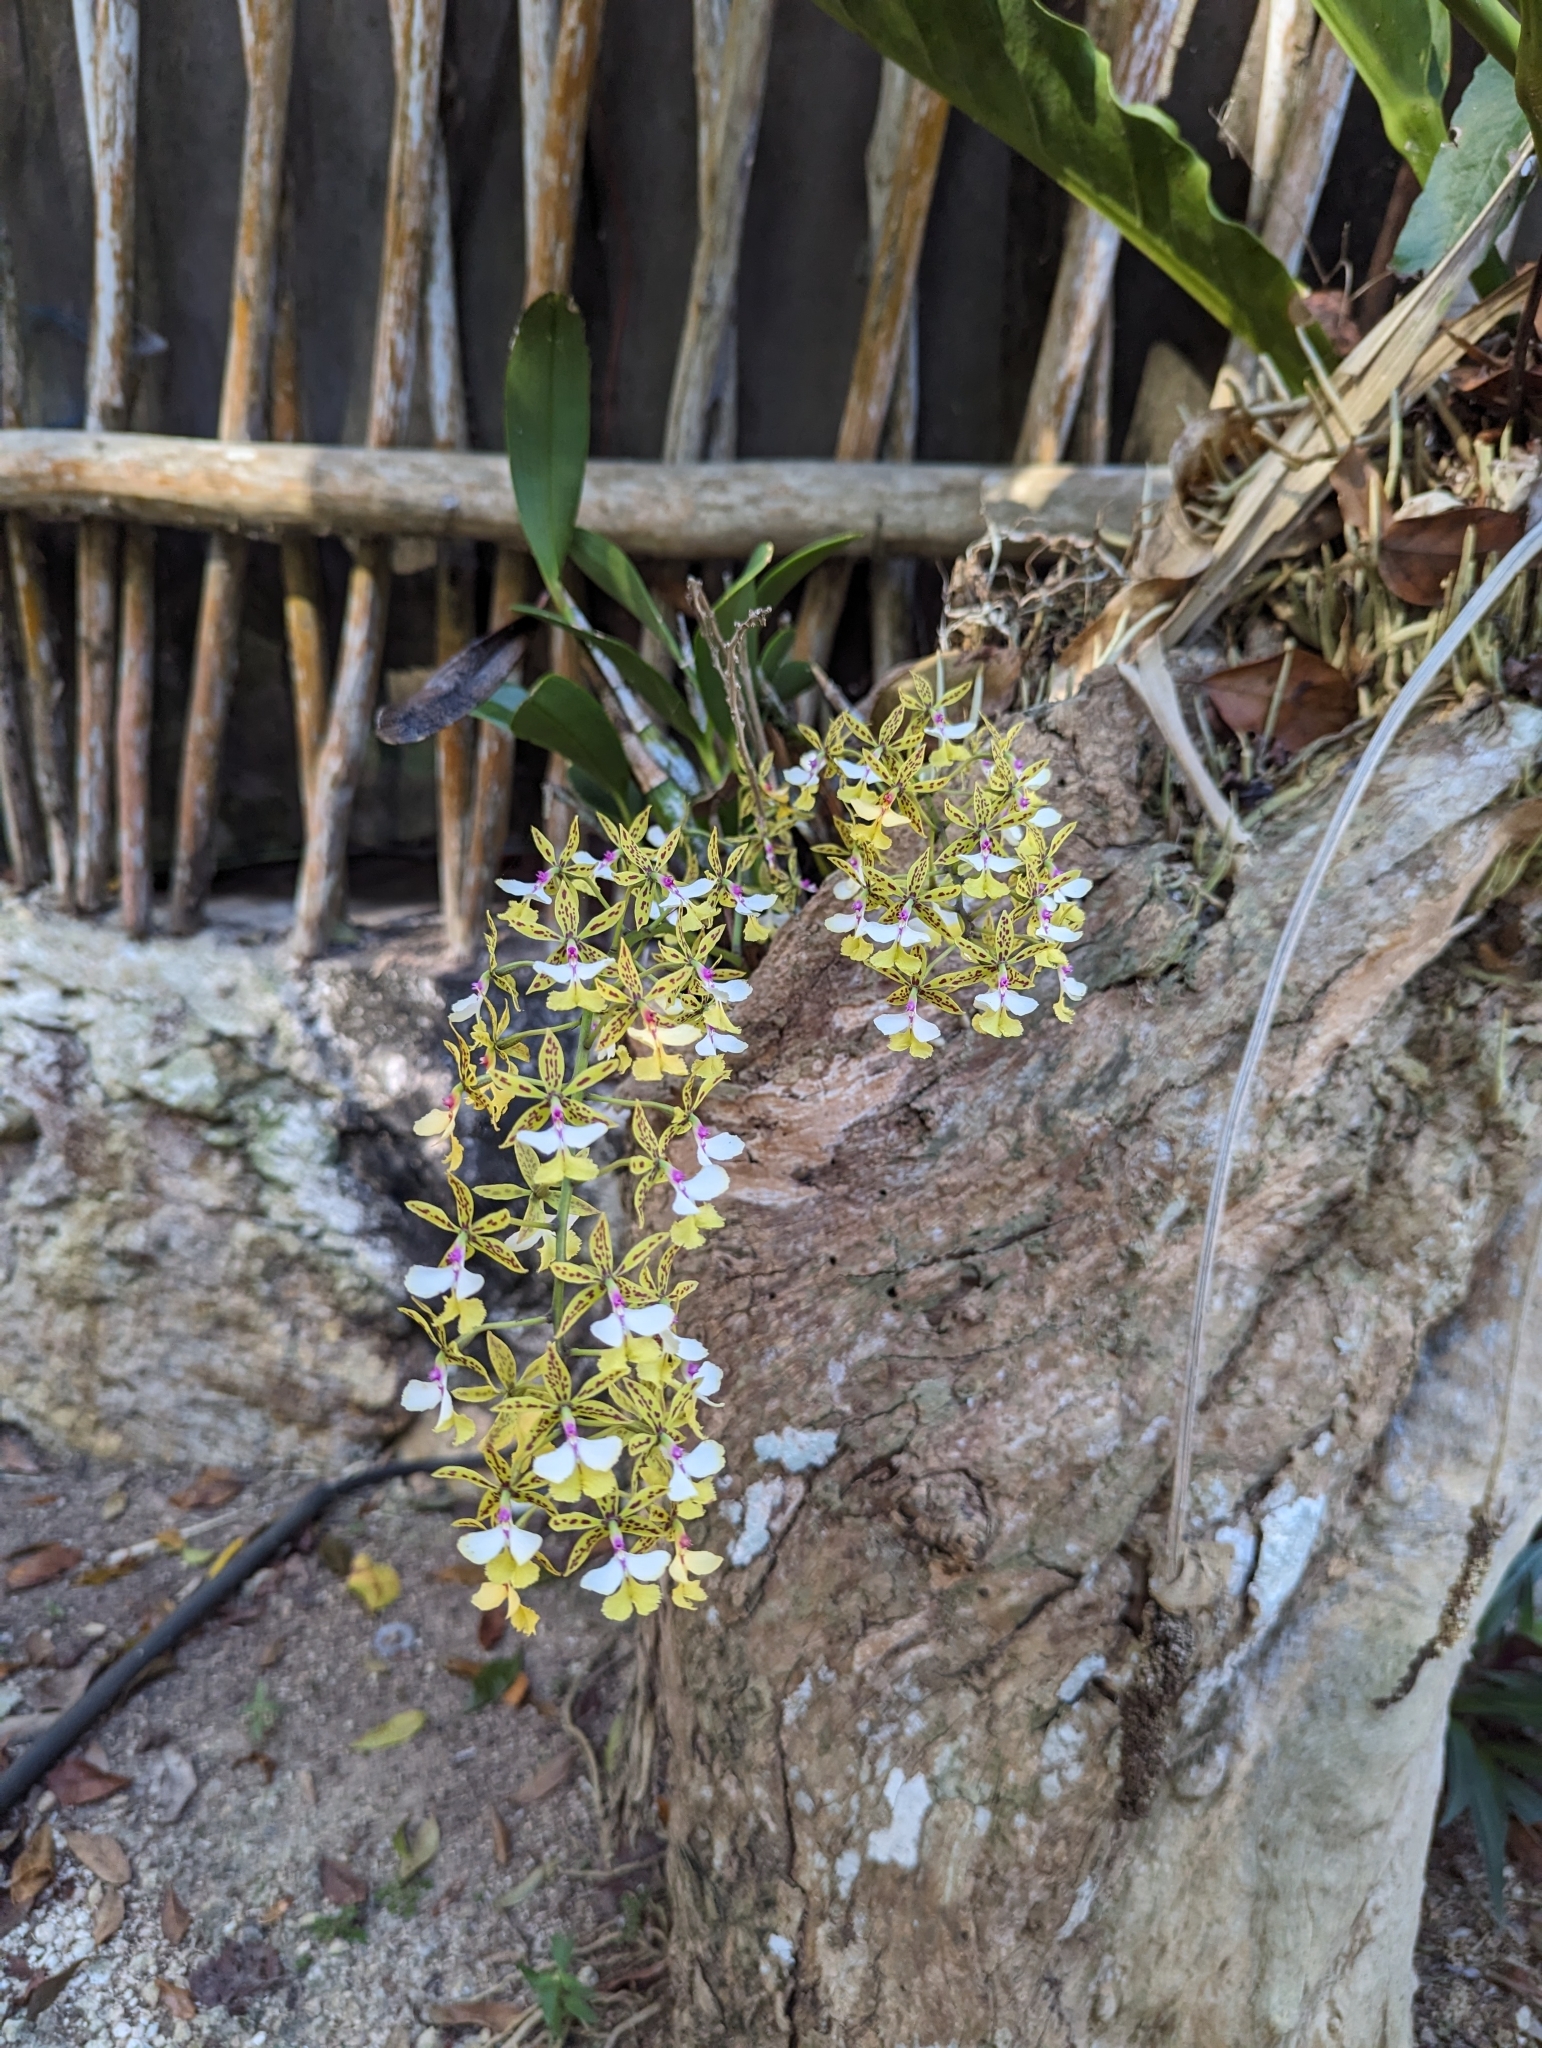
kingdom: Plantae
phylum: Tracheophyta
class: Liliopsida
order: Asparagales
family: Orchidaceae
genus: Epidendrum
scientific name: Epidendrum stamfordianum
